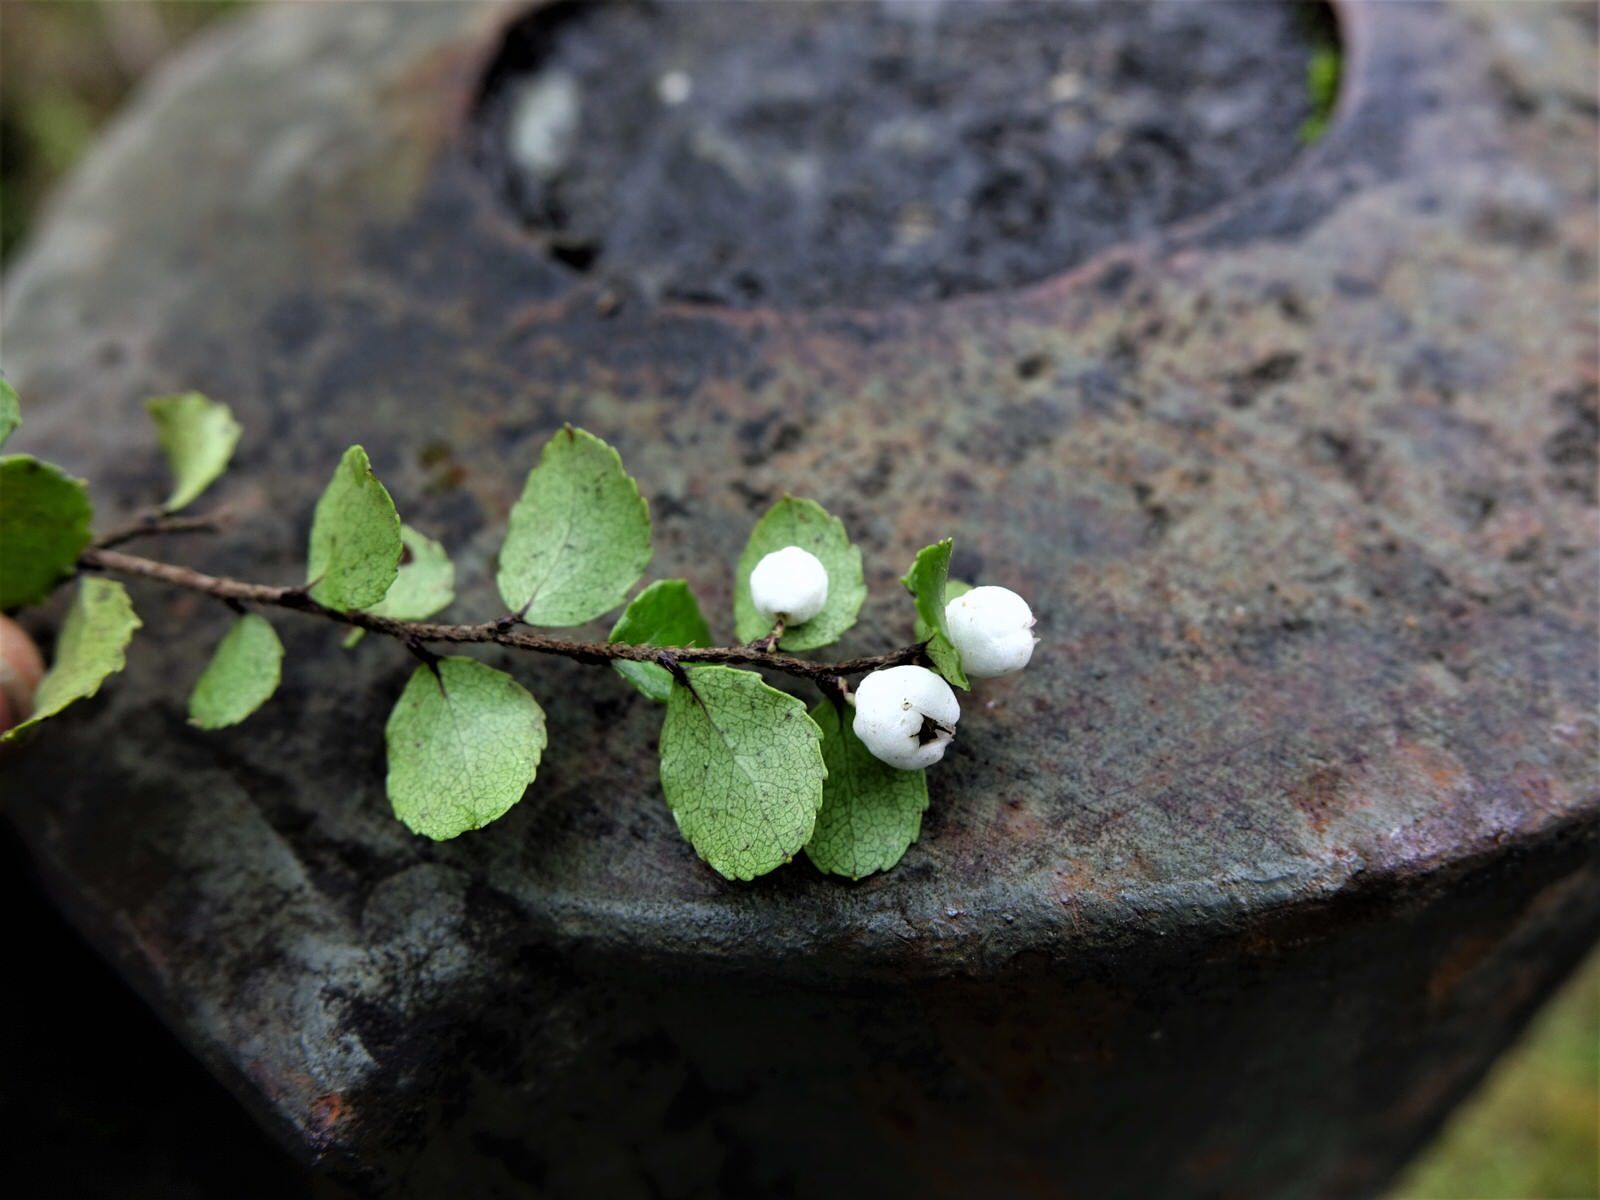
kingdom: Plantae
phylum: Tracheophyta
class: Magnoliopsida
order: Ericales
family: Ericaceae
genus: Gaultheria
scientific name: Gaultheria antipoda
